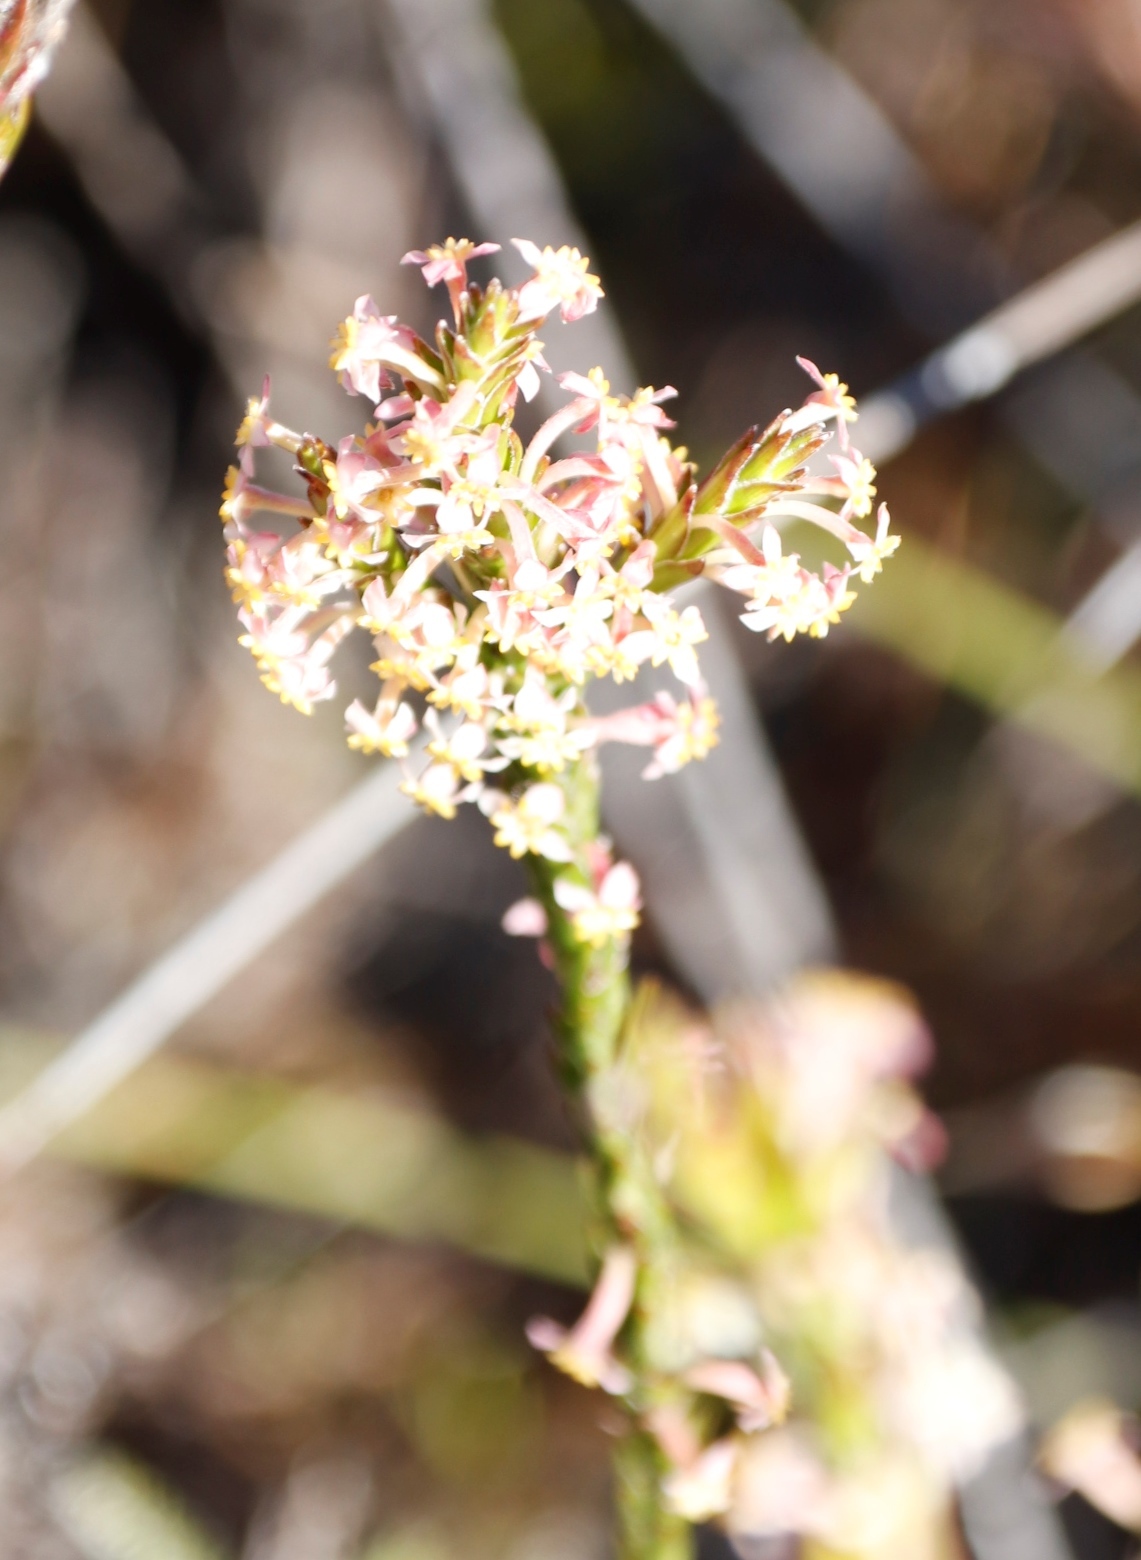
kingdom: Plantae
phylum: Tracheophyta
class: Magnoliopsida
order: Malvales
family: Thymelaeaceae
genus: Struthiola
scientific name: Struthiola ciliata
